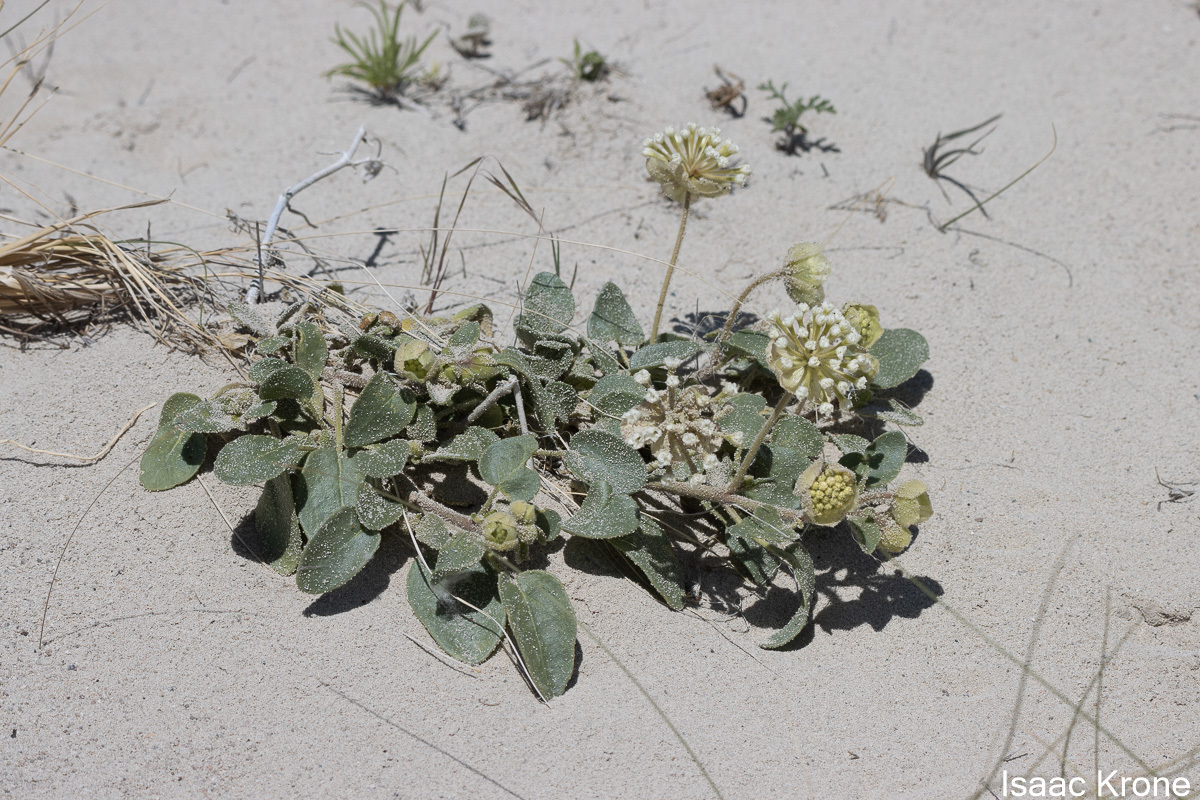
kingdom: Plantae
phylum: Tracheophyta
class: Magnoliopsida
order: Caryophyllales
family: Nyctaginaceae
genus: Abronia
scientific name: Abronia elliptica
